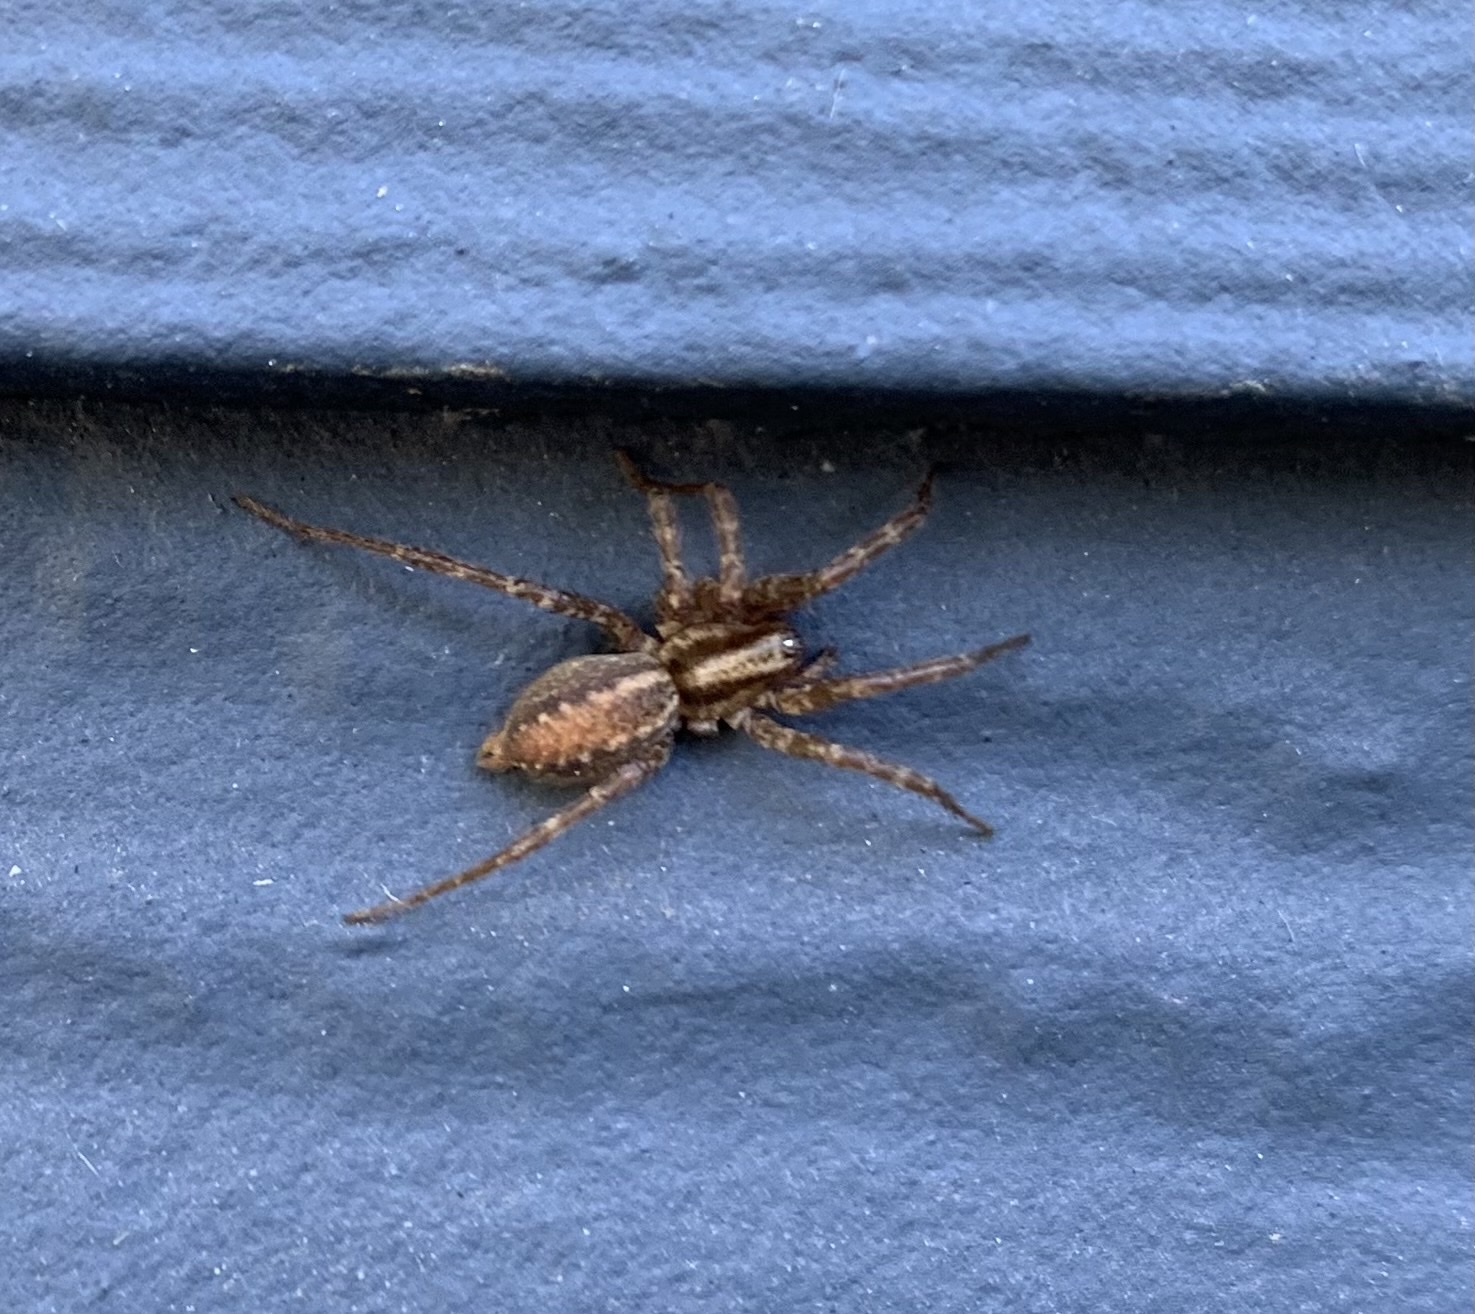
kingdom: Animalia
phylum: Arthropoda
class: Arachnida
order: Araneae
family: Agelenidae
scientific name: Agelenidae
